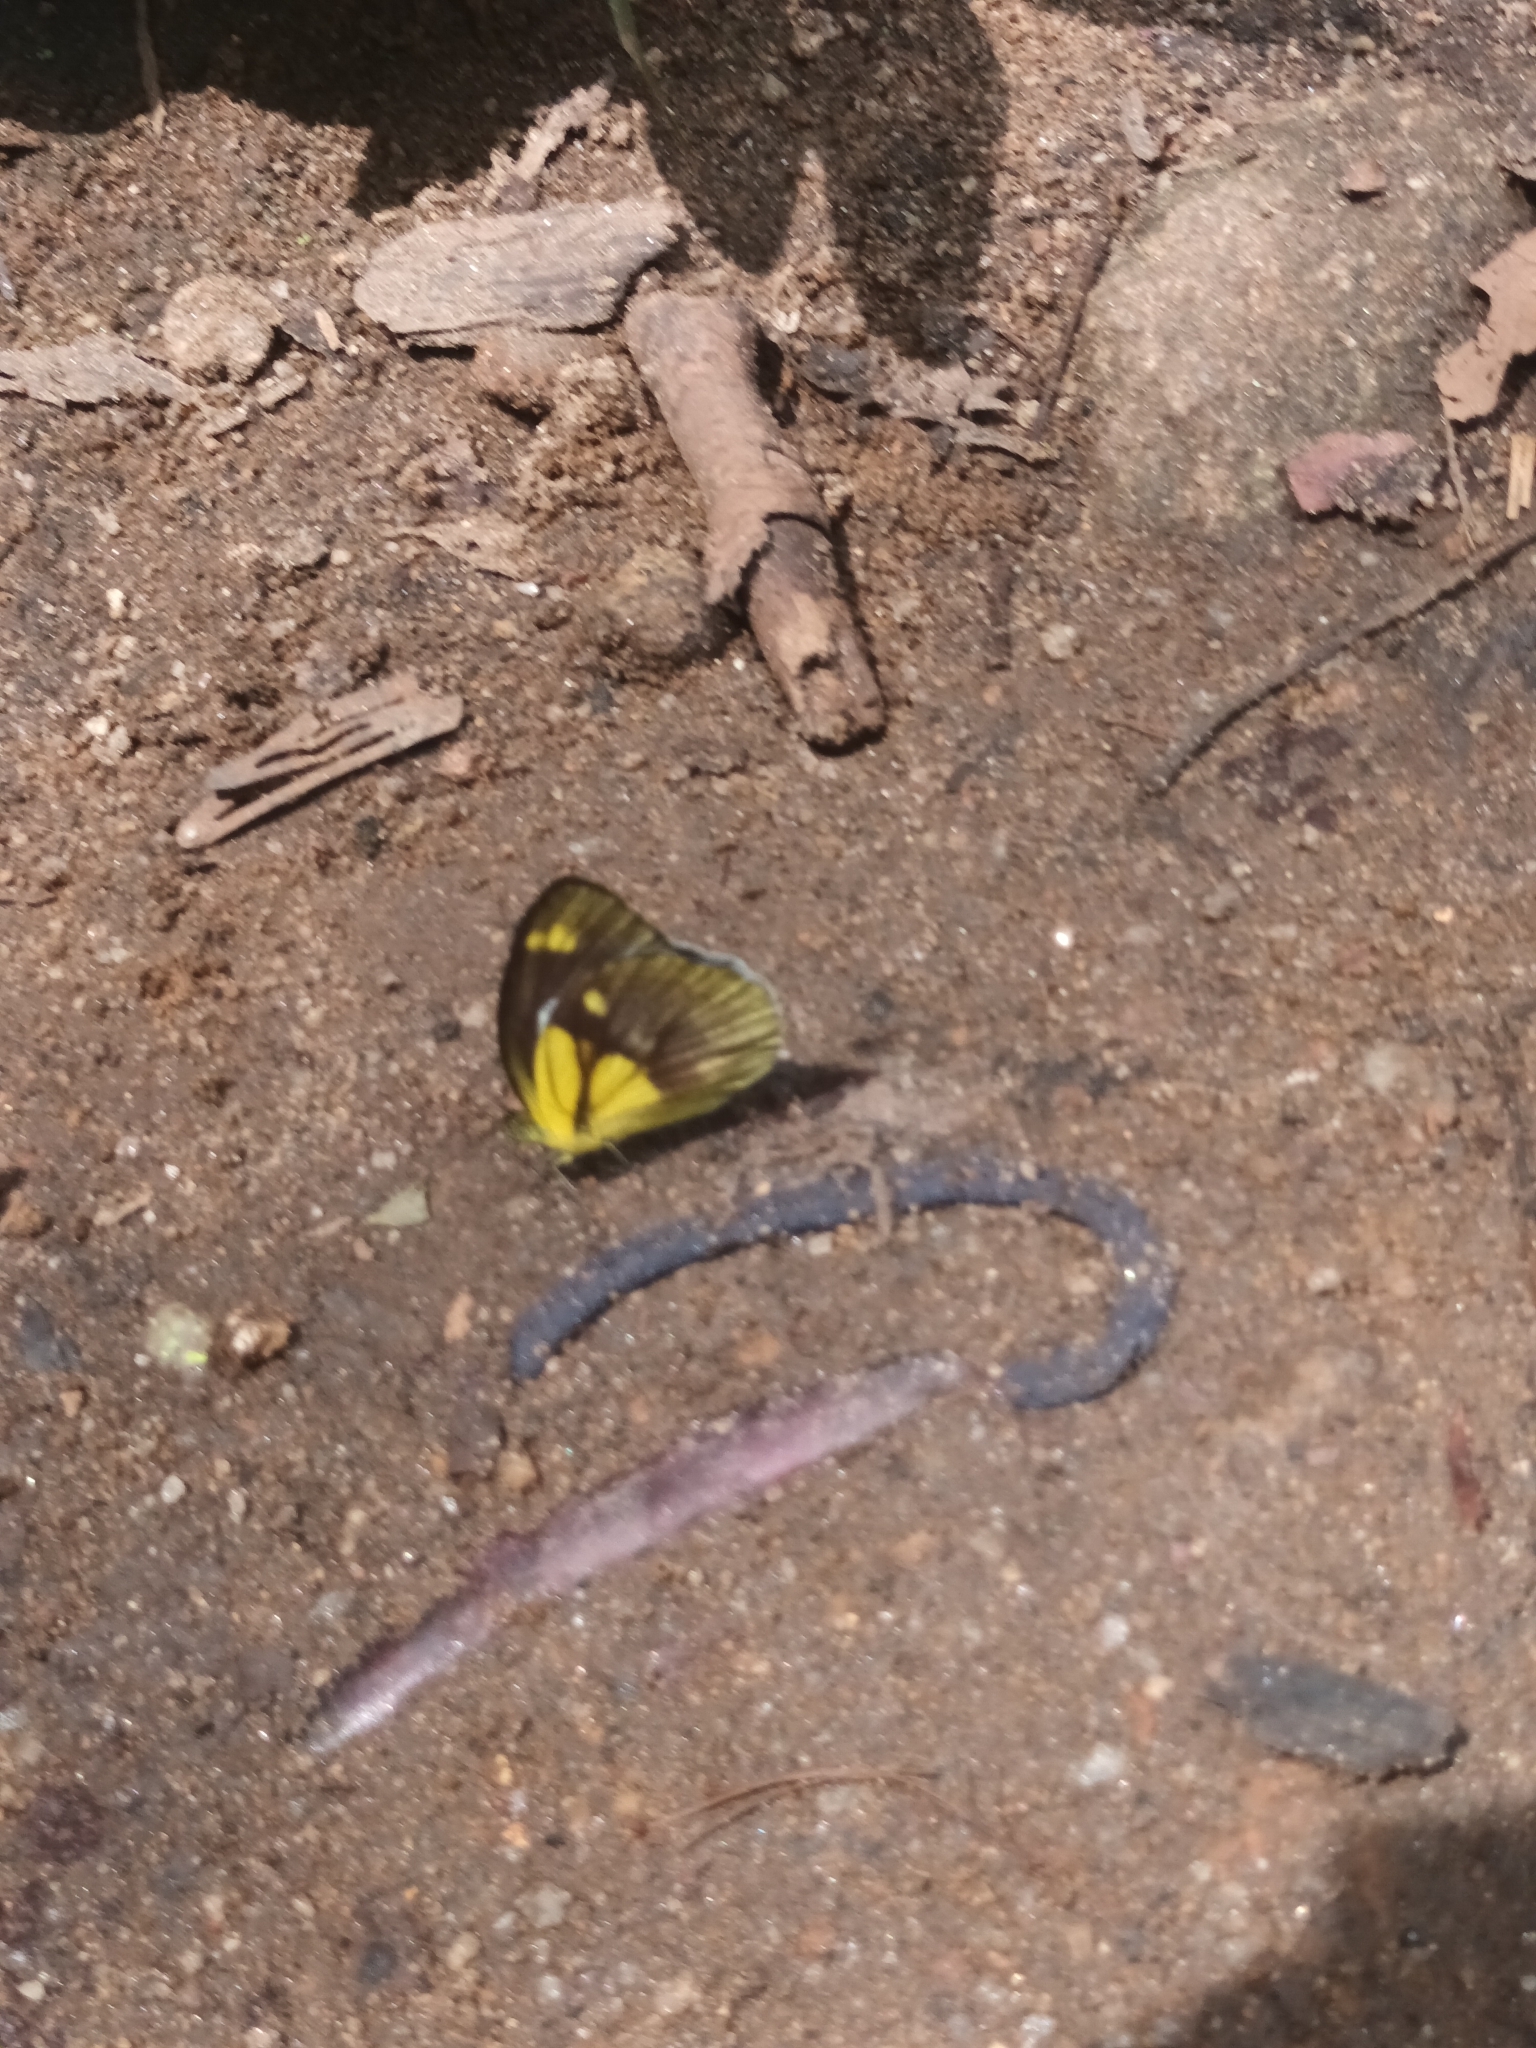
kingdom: Animalia
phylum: Arthropoda
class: Insecta
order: Lepidoptera
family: Pieridae
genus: Cepora
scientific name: Cepora nadina
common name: Lesser gull
